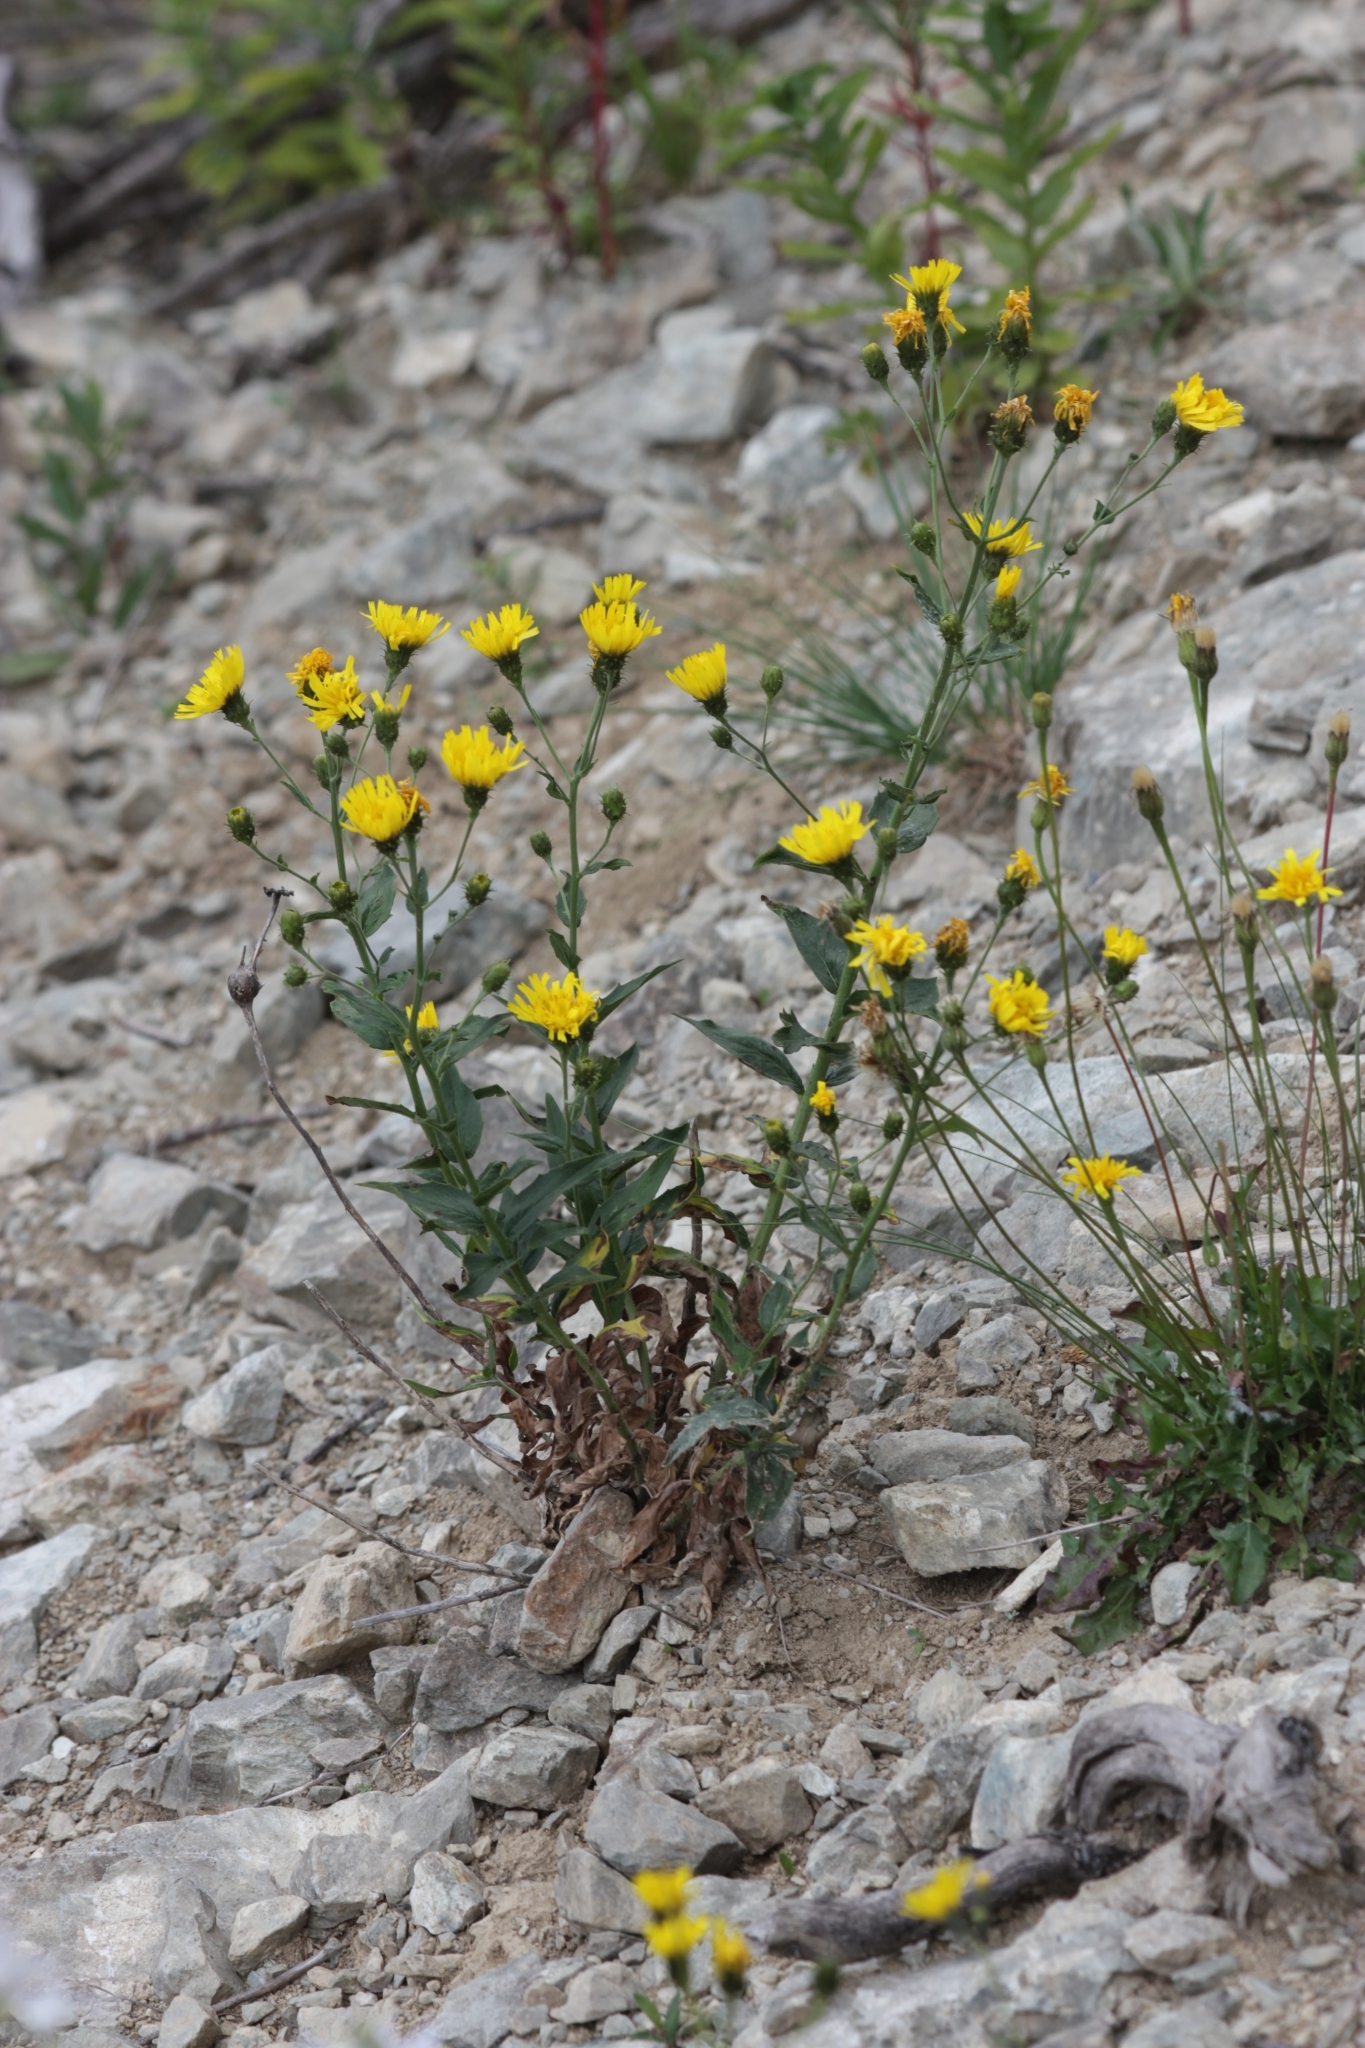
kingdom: Plantae
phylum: Tracheophyta
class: Magnoliopsida
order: Asterales
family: Asteraceae
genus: Hieracium
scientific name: Hieracium umbellatum
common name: Northern hawkweed
